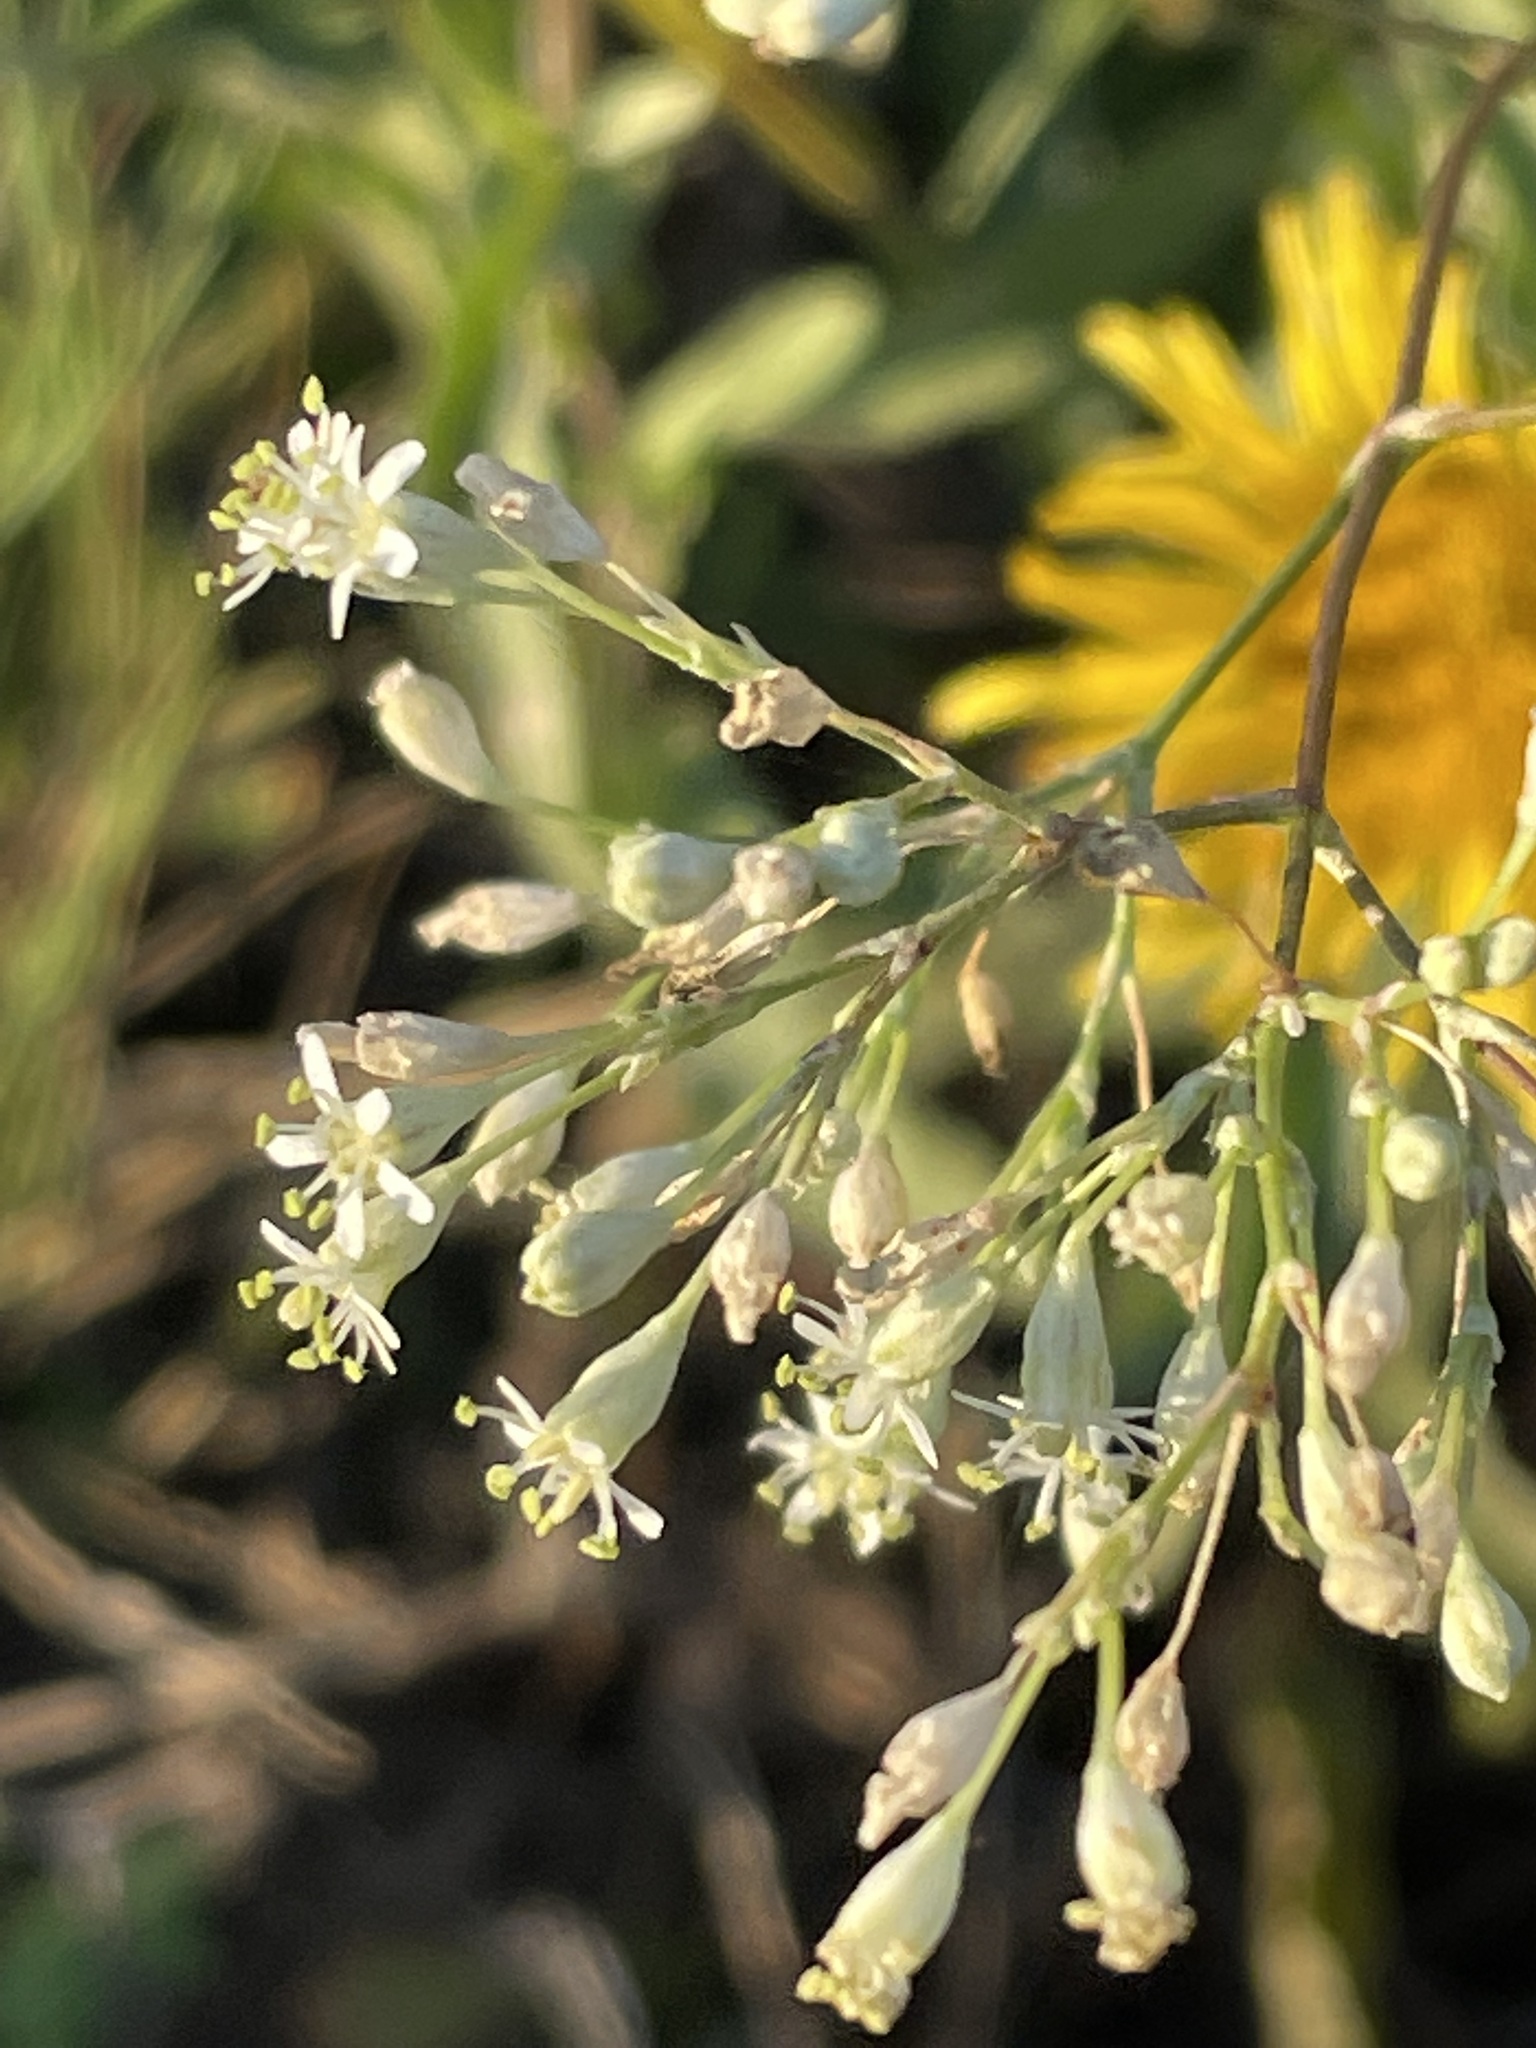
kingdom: Plantae
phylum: Tracheophyta
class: Magnoliopsida
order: Caryophyllales
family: Caryophyllaceae
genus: Silene
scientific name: Silene wolgensis
